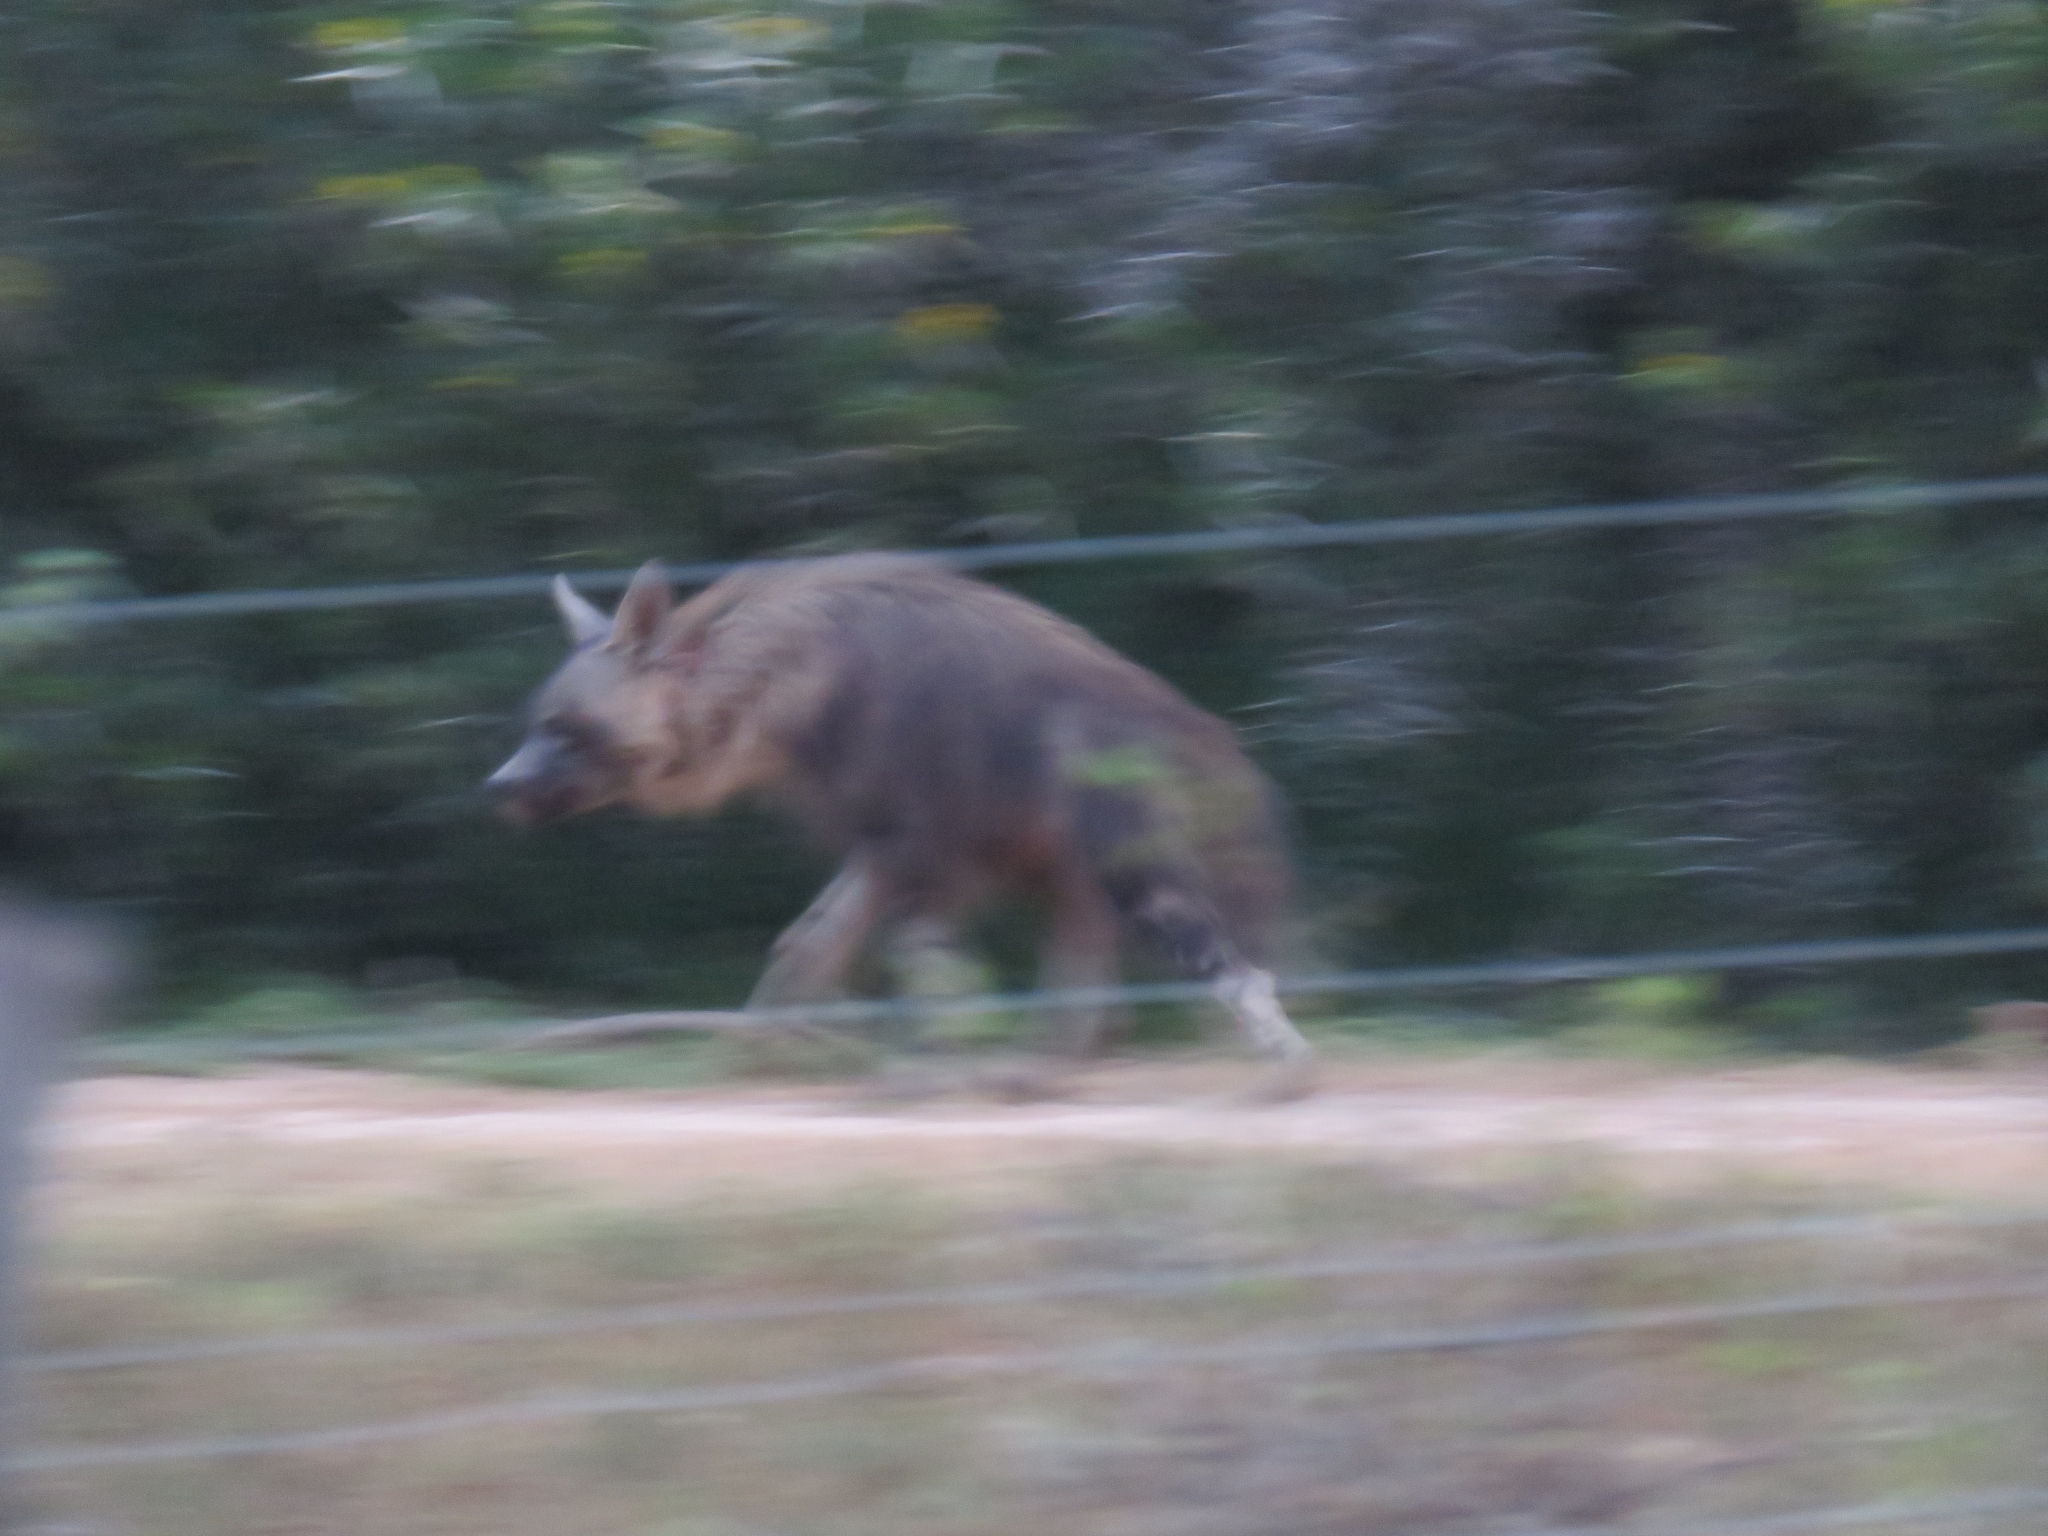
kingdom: Animalia
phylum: Chordata
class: Mammalia
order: Carnivora
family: Hyaenidae
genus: Hyaena
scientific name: Hyaena brunnea
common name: Brown hyena
